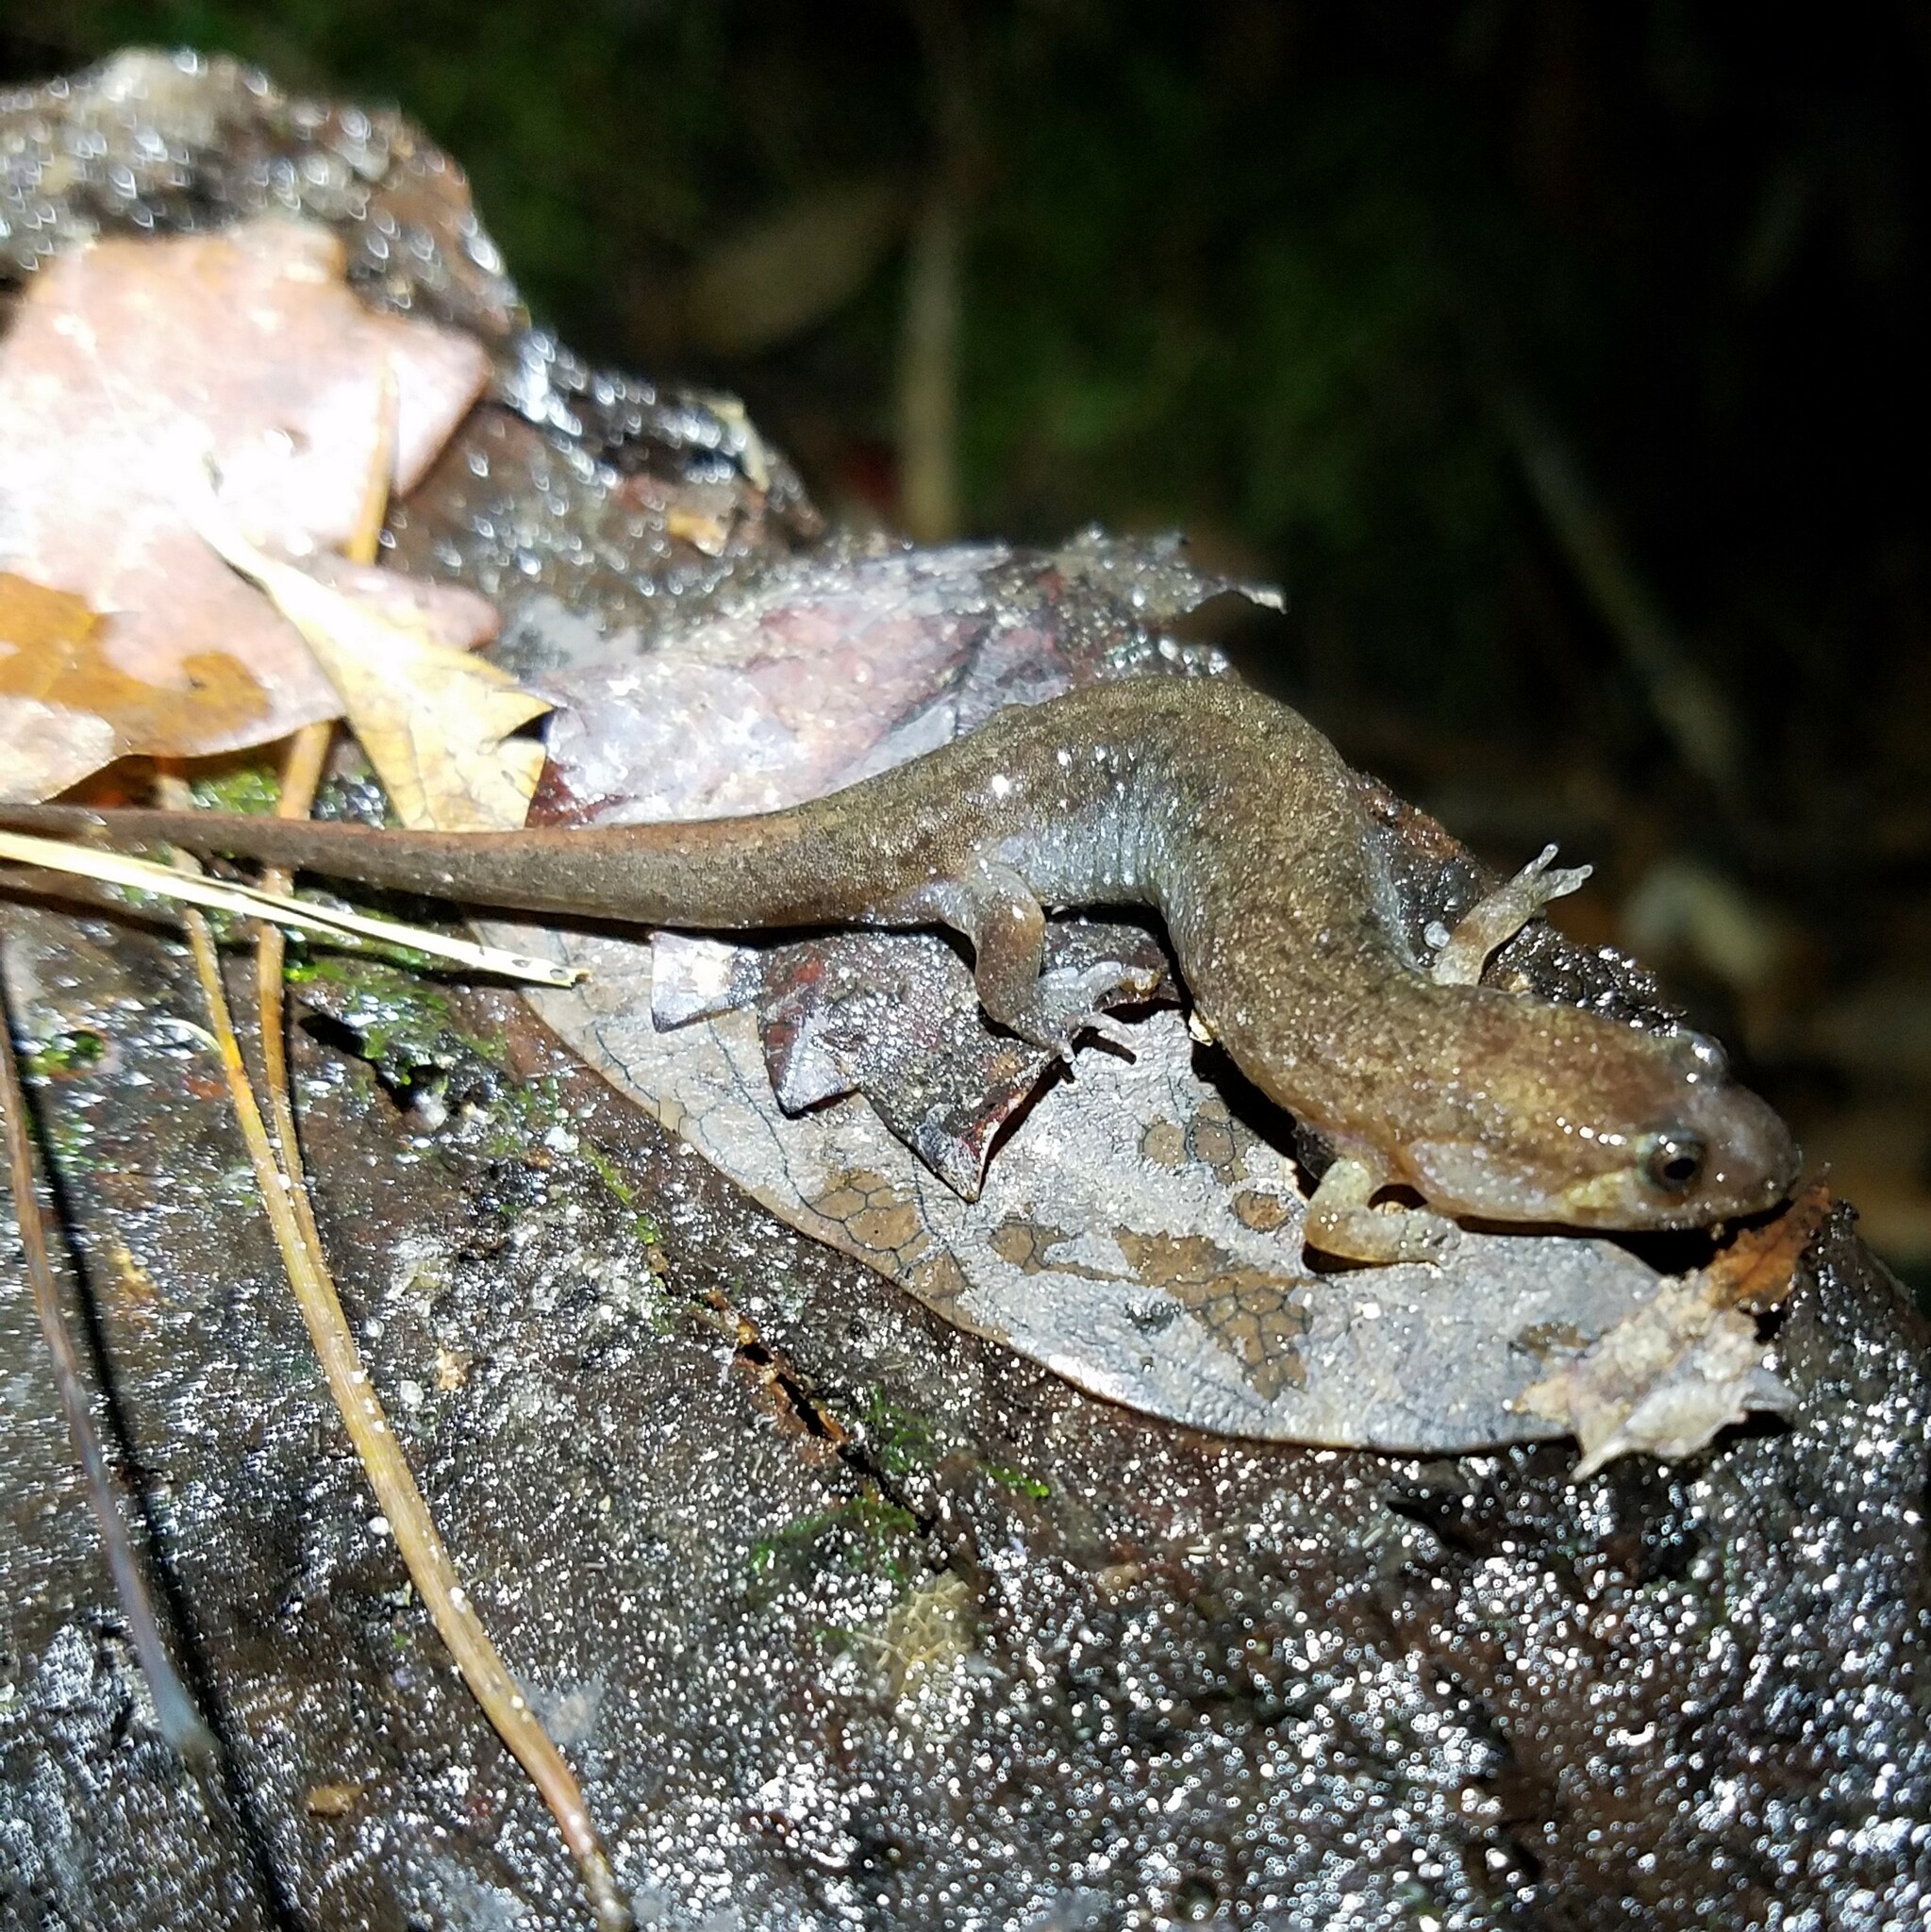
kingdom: Animalia
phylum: Chordata
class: Amphibia
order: Caudata
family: Plethodontidae
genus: Desmognathus
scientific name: Desmognathus apalachicolae
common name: Apalachicola dusky salamander
